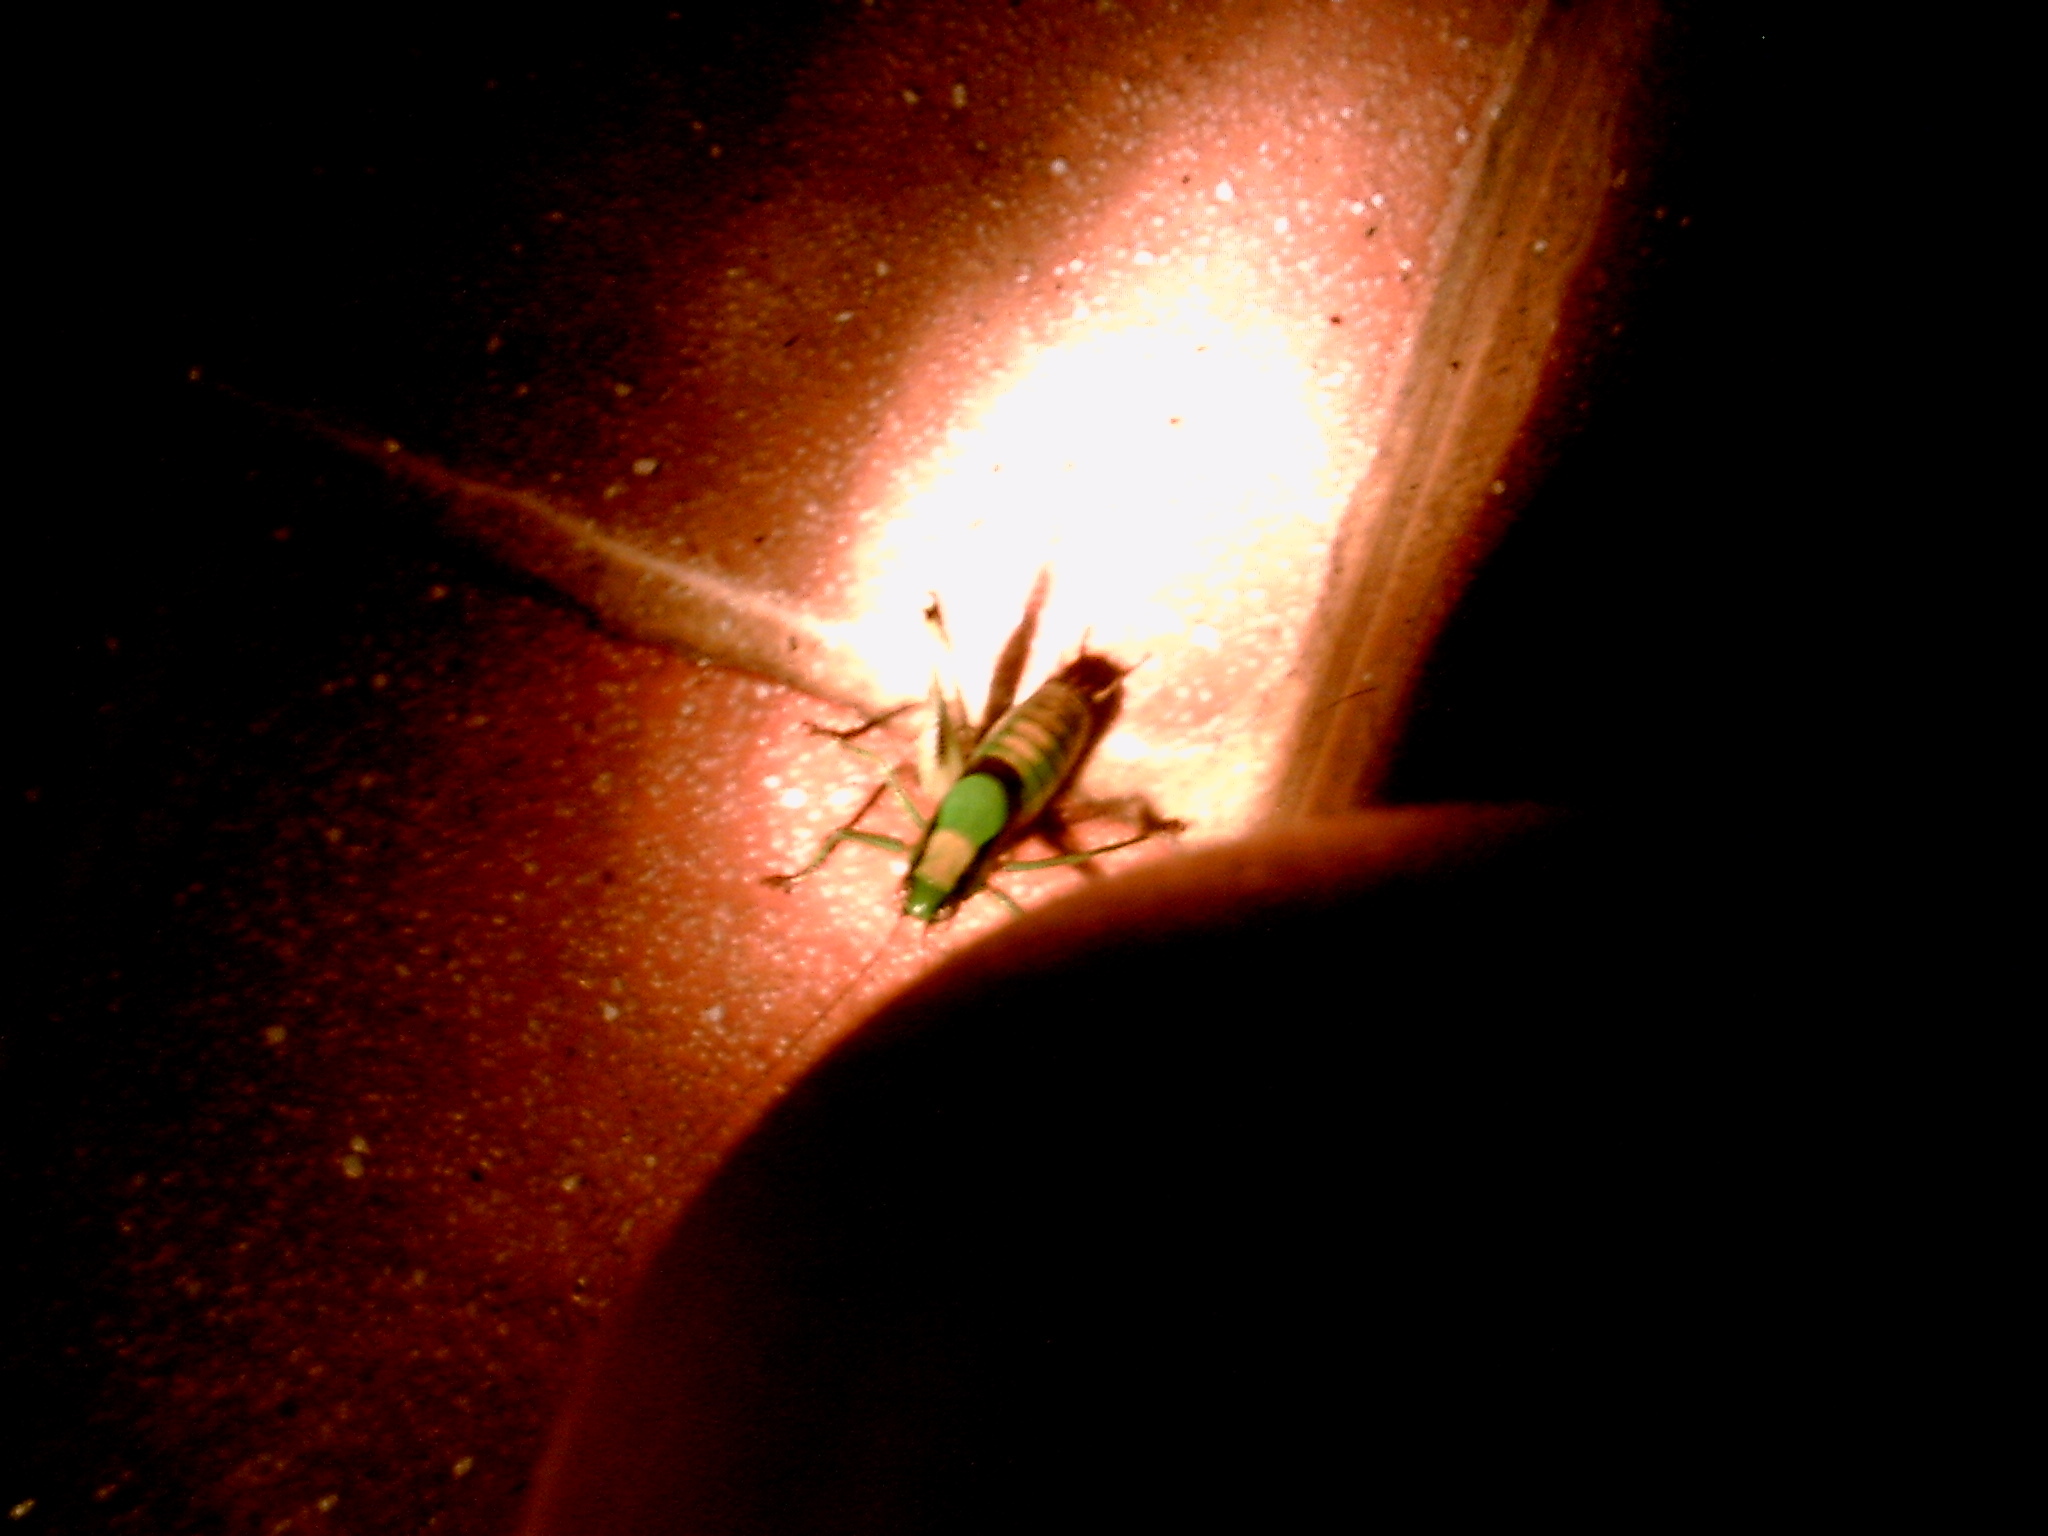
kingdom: Animalia
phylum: Arthropoda
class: Insecta
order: Orthoptera
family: Tettigoniidae
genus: Eupholidoptera
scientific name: Eupholidoptera schmidti
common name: Schmidt's marbled bush-cricket
